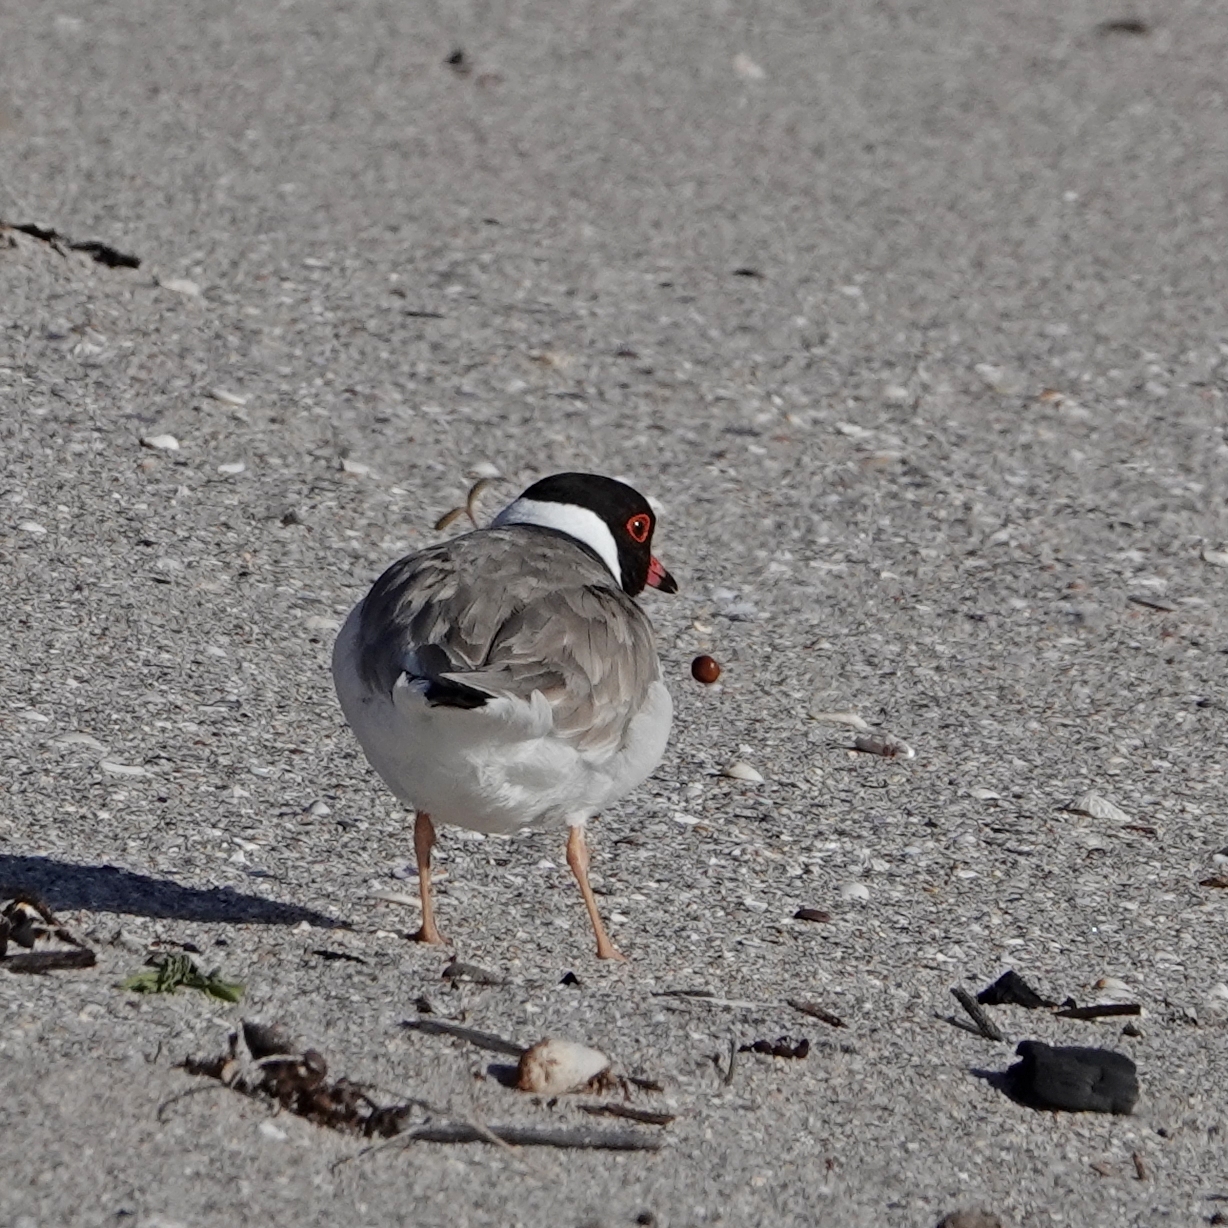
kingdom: Animalia
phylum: Chordata
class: Aves
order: Charadriiformes
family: Charadriidae
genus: Thinornis
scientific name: Thinornis cucullatus
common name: Hooded dotterel
